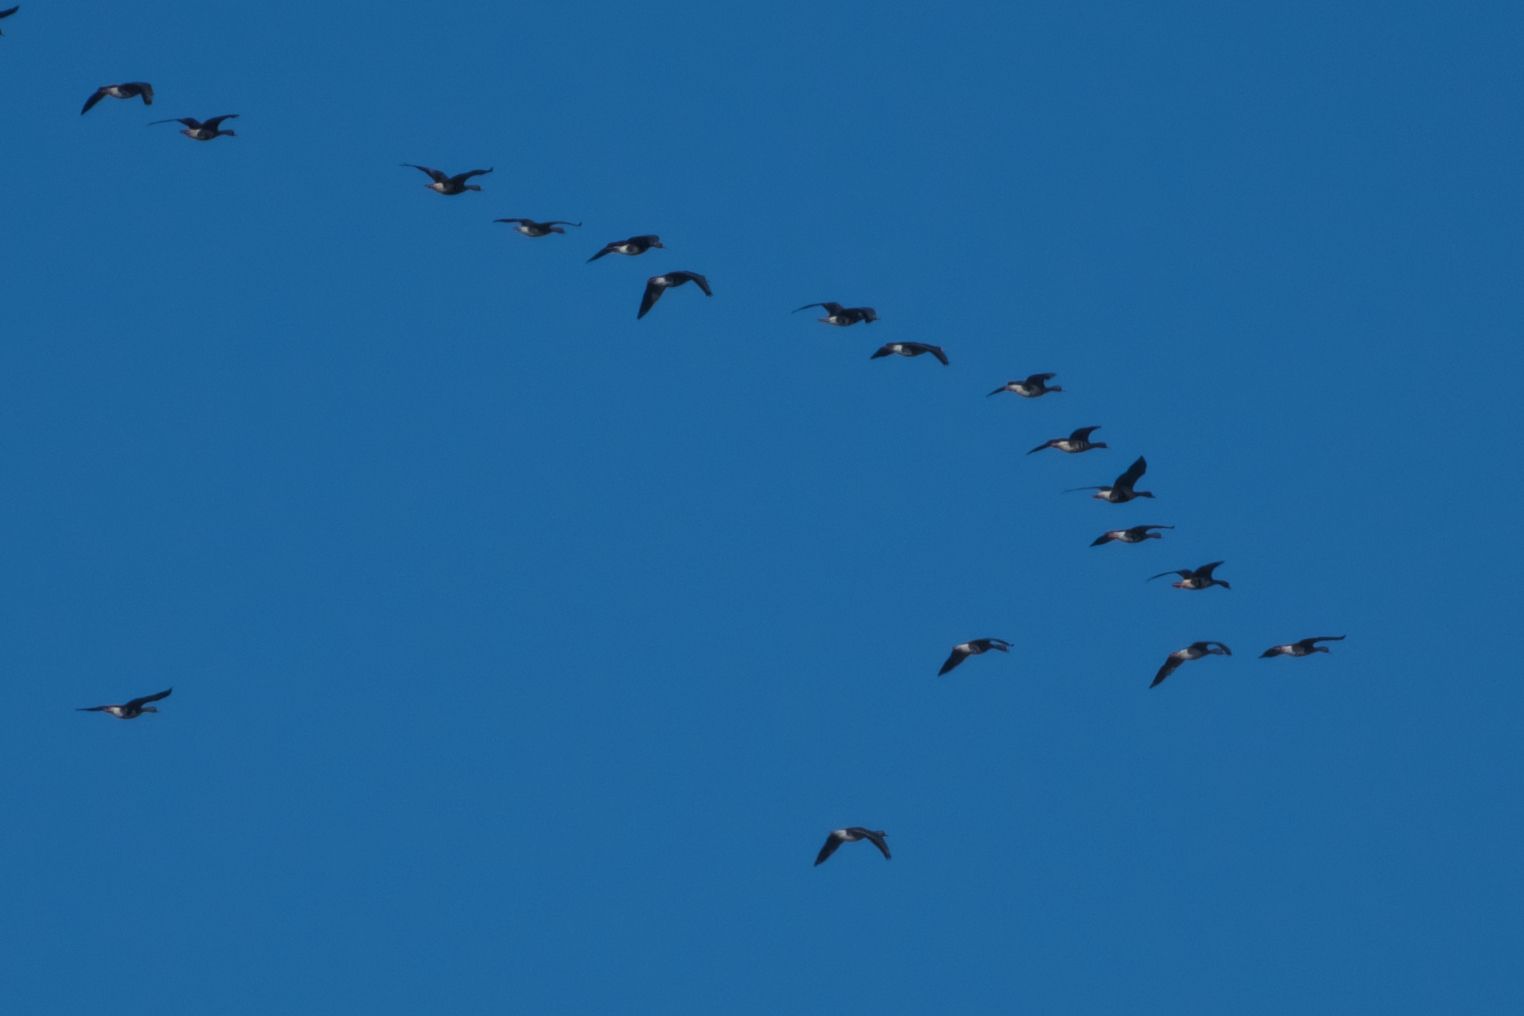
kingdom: Animalia
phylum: Chordata
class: Aves
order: Anseriformes
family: Anatidae
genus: Anser
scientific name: Anser albifrons
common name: Greater white-fronted goose
